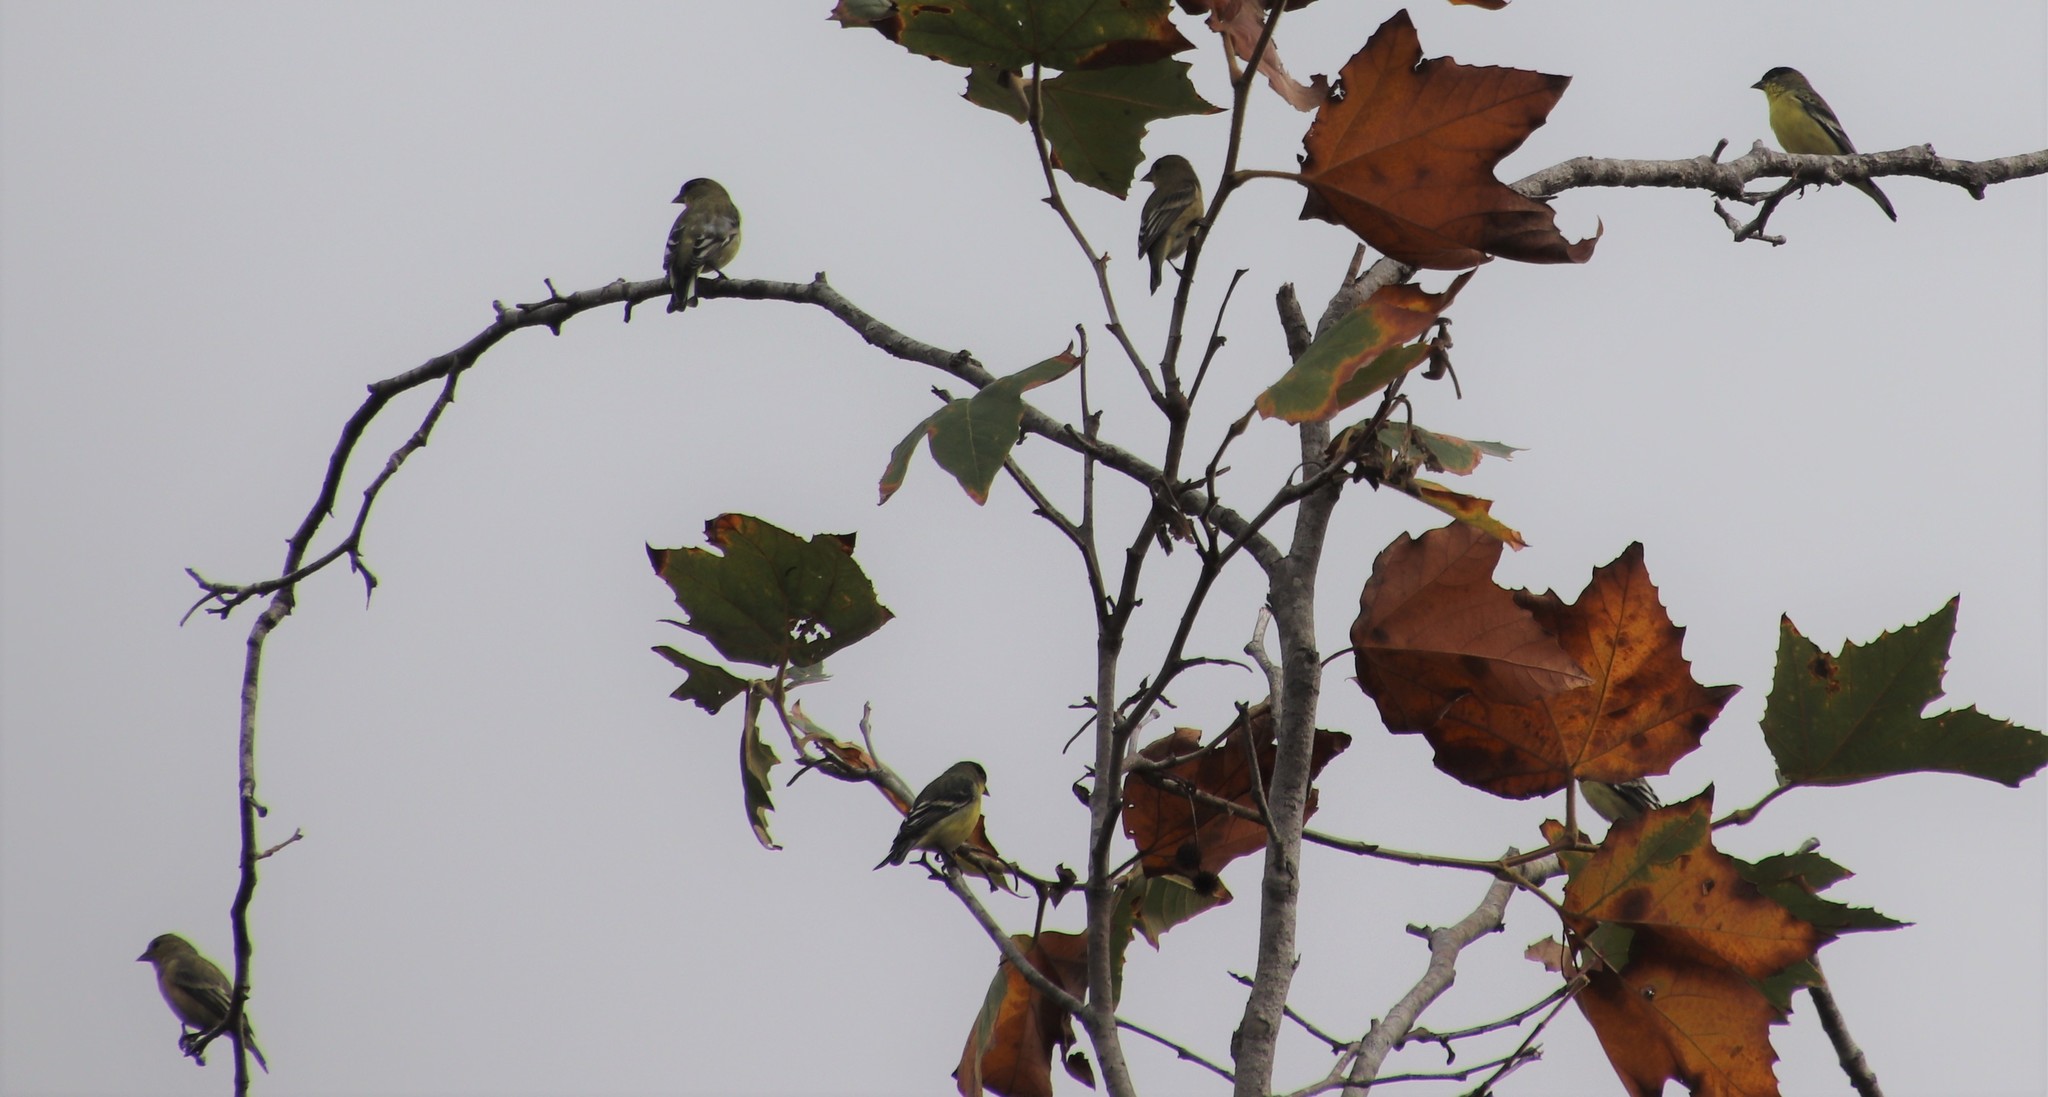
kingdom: Animalia
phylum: Chordata
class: Aves
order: Passeriformes
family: Fringillidae
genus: Spinus
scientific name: Spinus psaltria
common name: Lesser goldfinch
